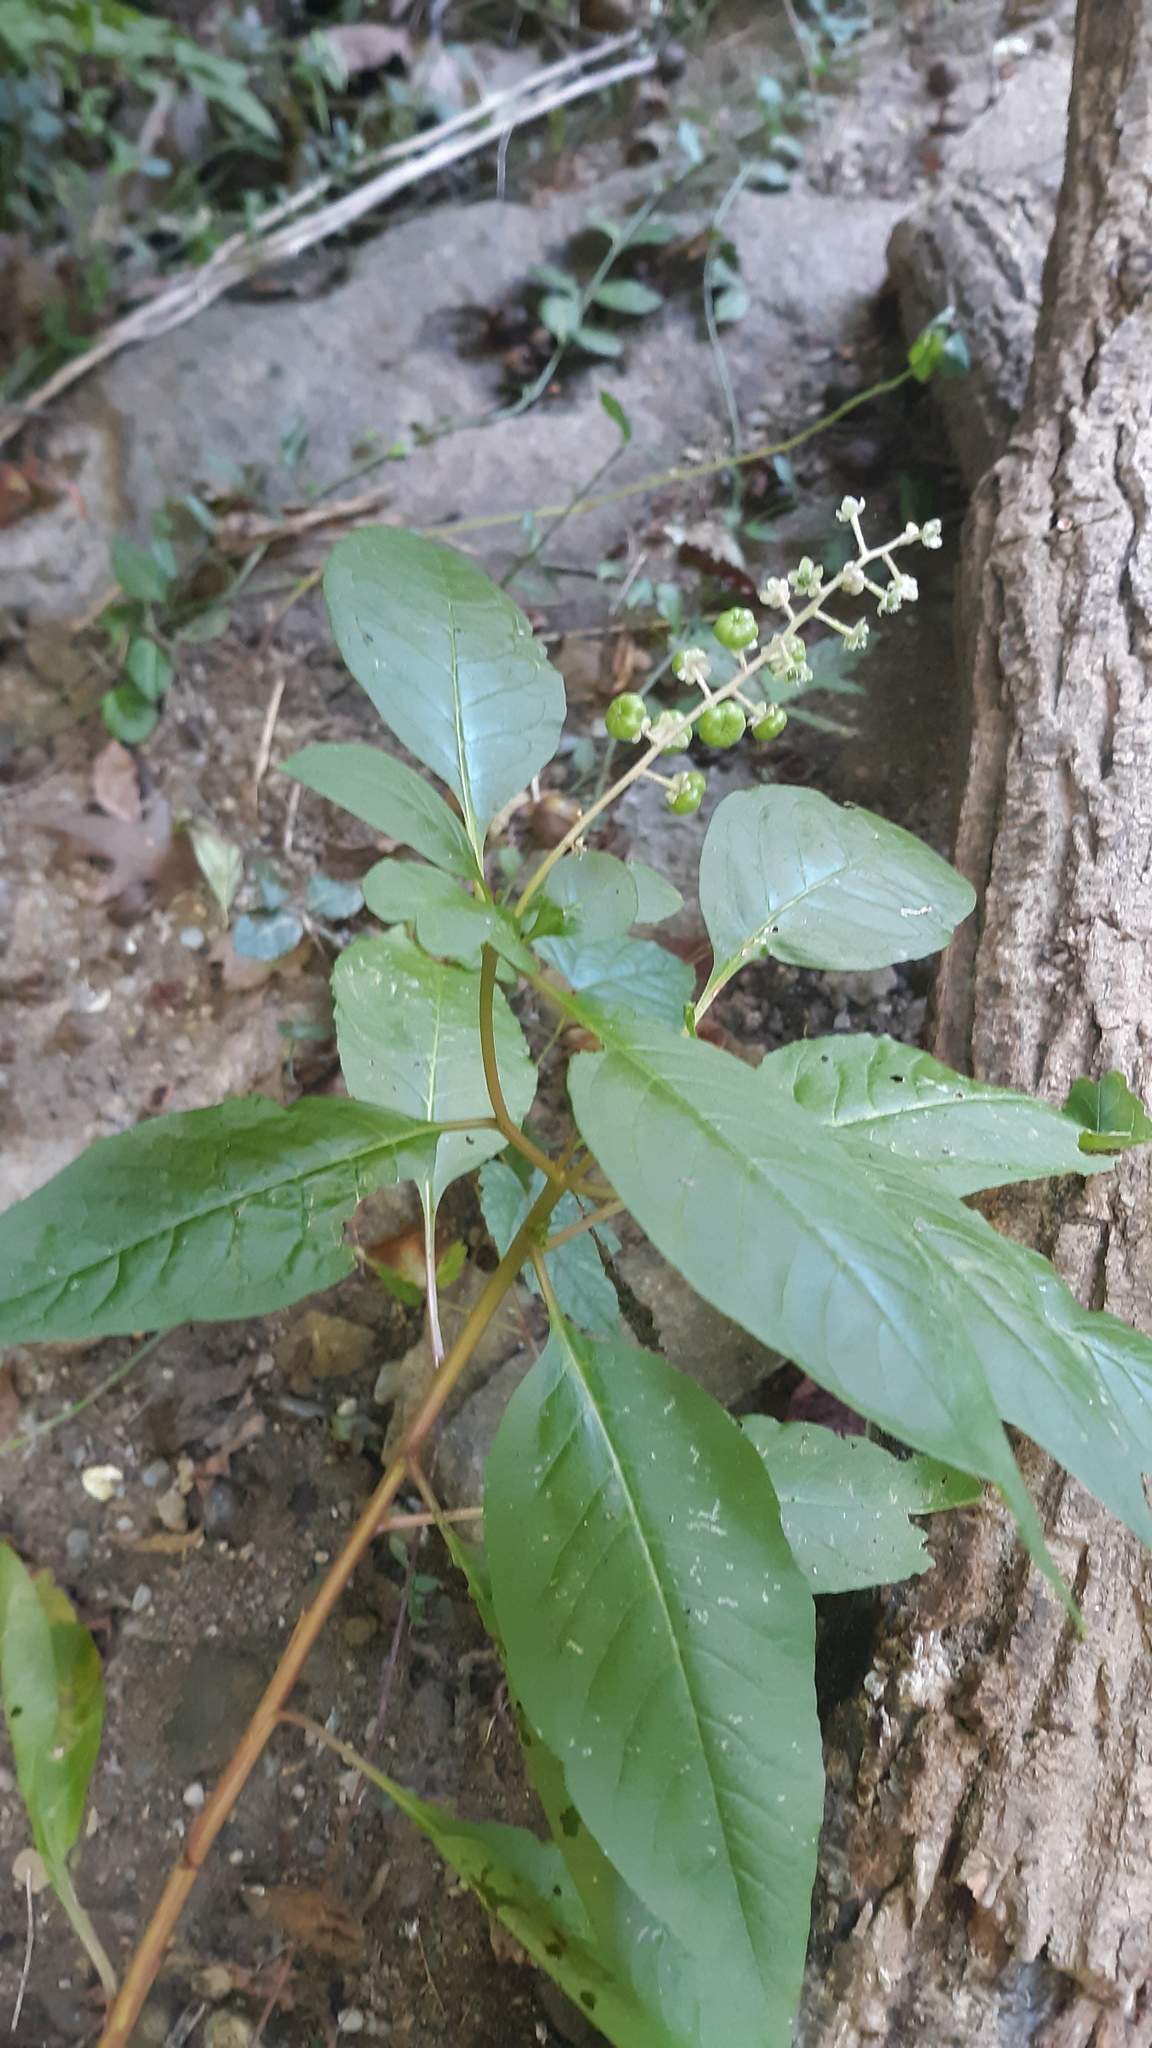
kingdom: Plantae
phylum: Tracheophyta
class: Magnoliopsida
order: Caryophyllales
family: Phytolaccaceae
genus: Phytolacca
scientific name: Phytolacca americana
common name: American pokeweed
